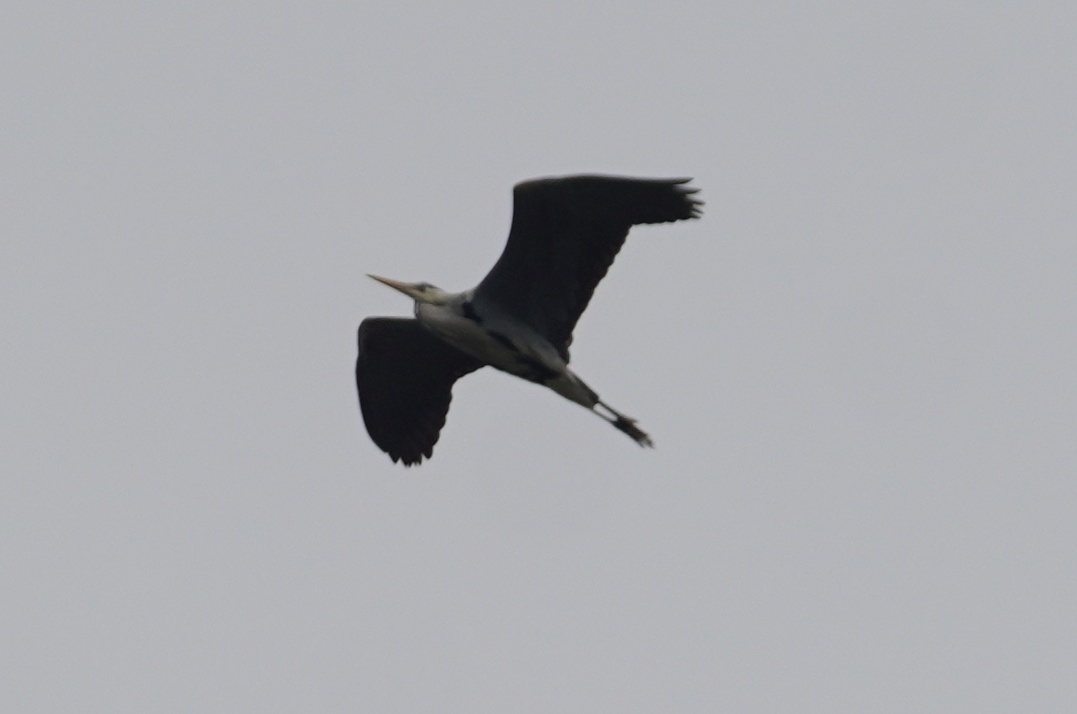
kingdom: Animalia
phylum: Chordata
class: Aves
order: Pelecaniformes
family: Ardeidae
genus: Ardea
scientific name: Ardea cinerea
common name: Grey heron
